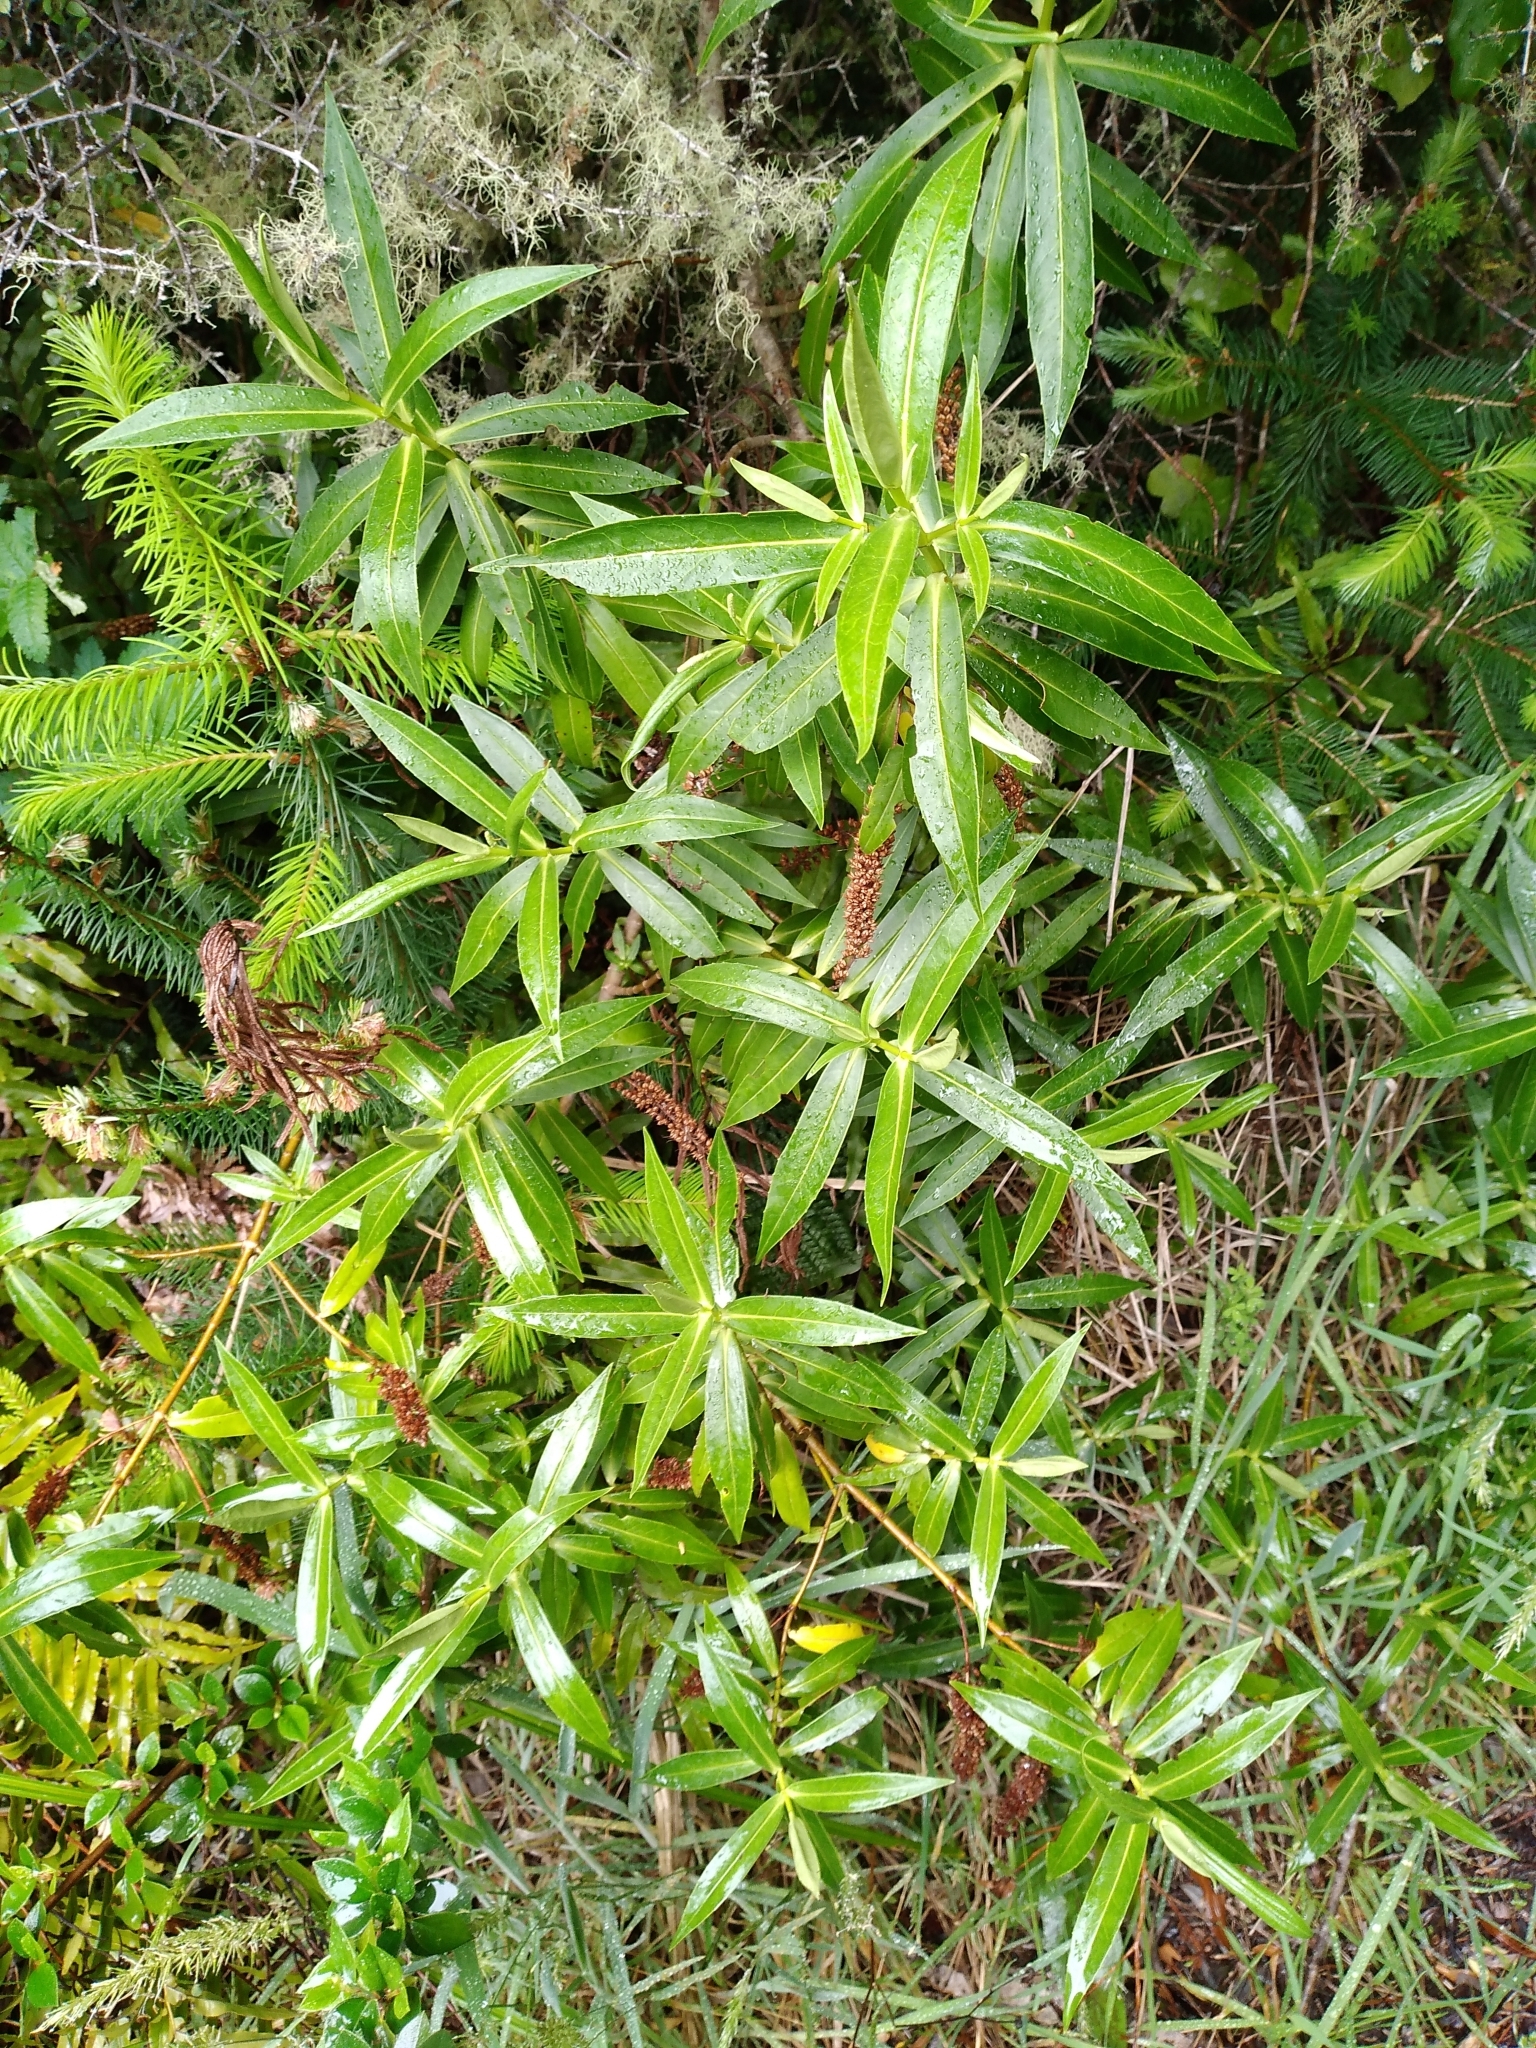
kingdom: Plantae
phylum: Tracheophyta
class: Magnoliopsida
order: Lamiales
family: Plantaginaceae
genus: Veronica
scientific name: Veronica salicifolia
